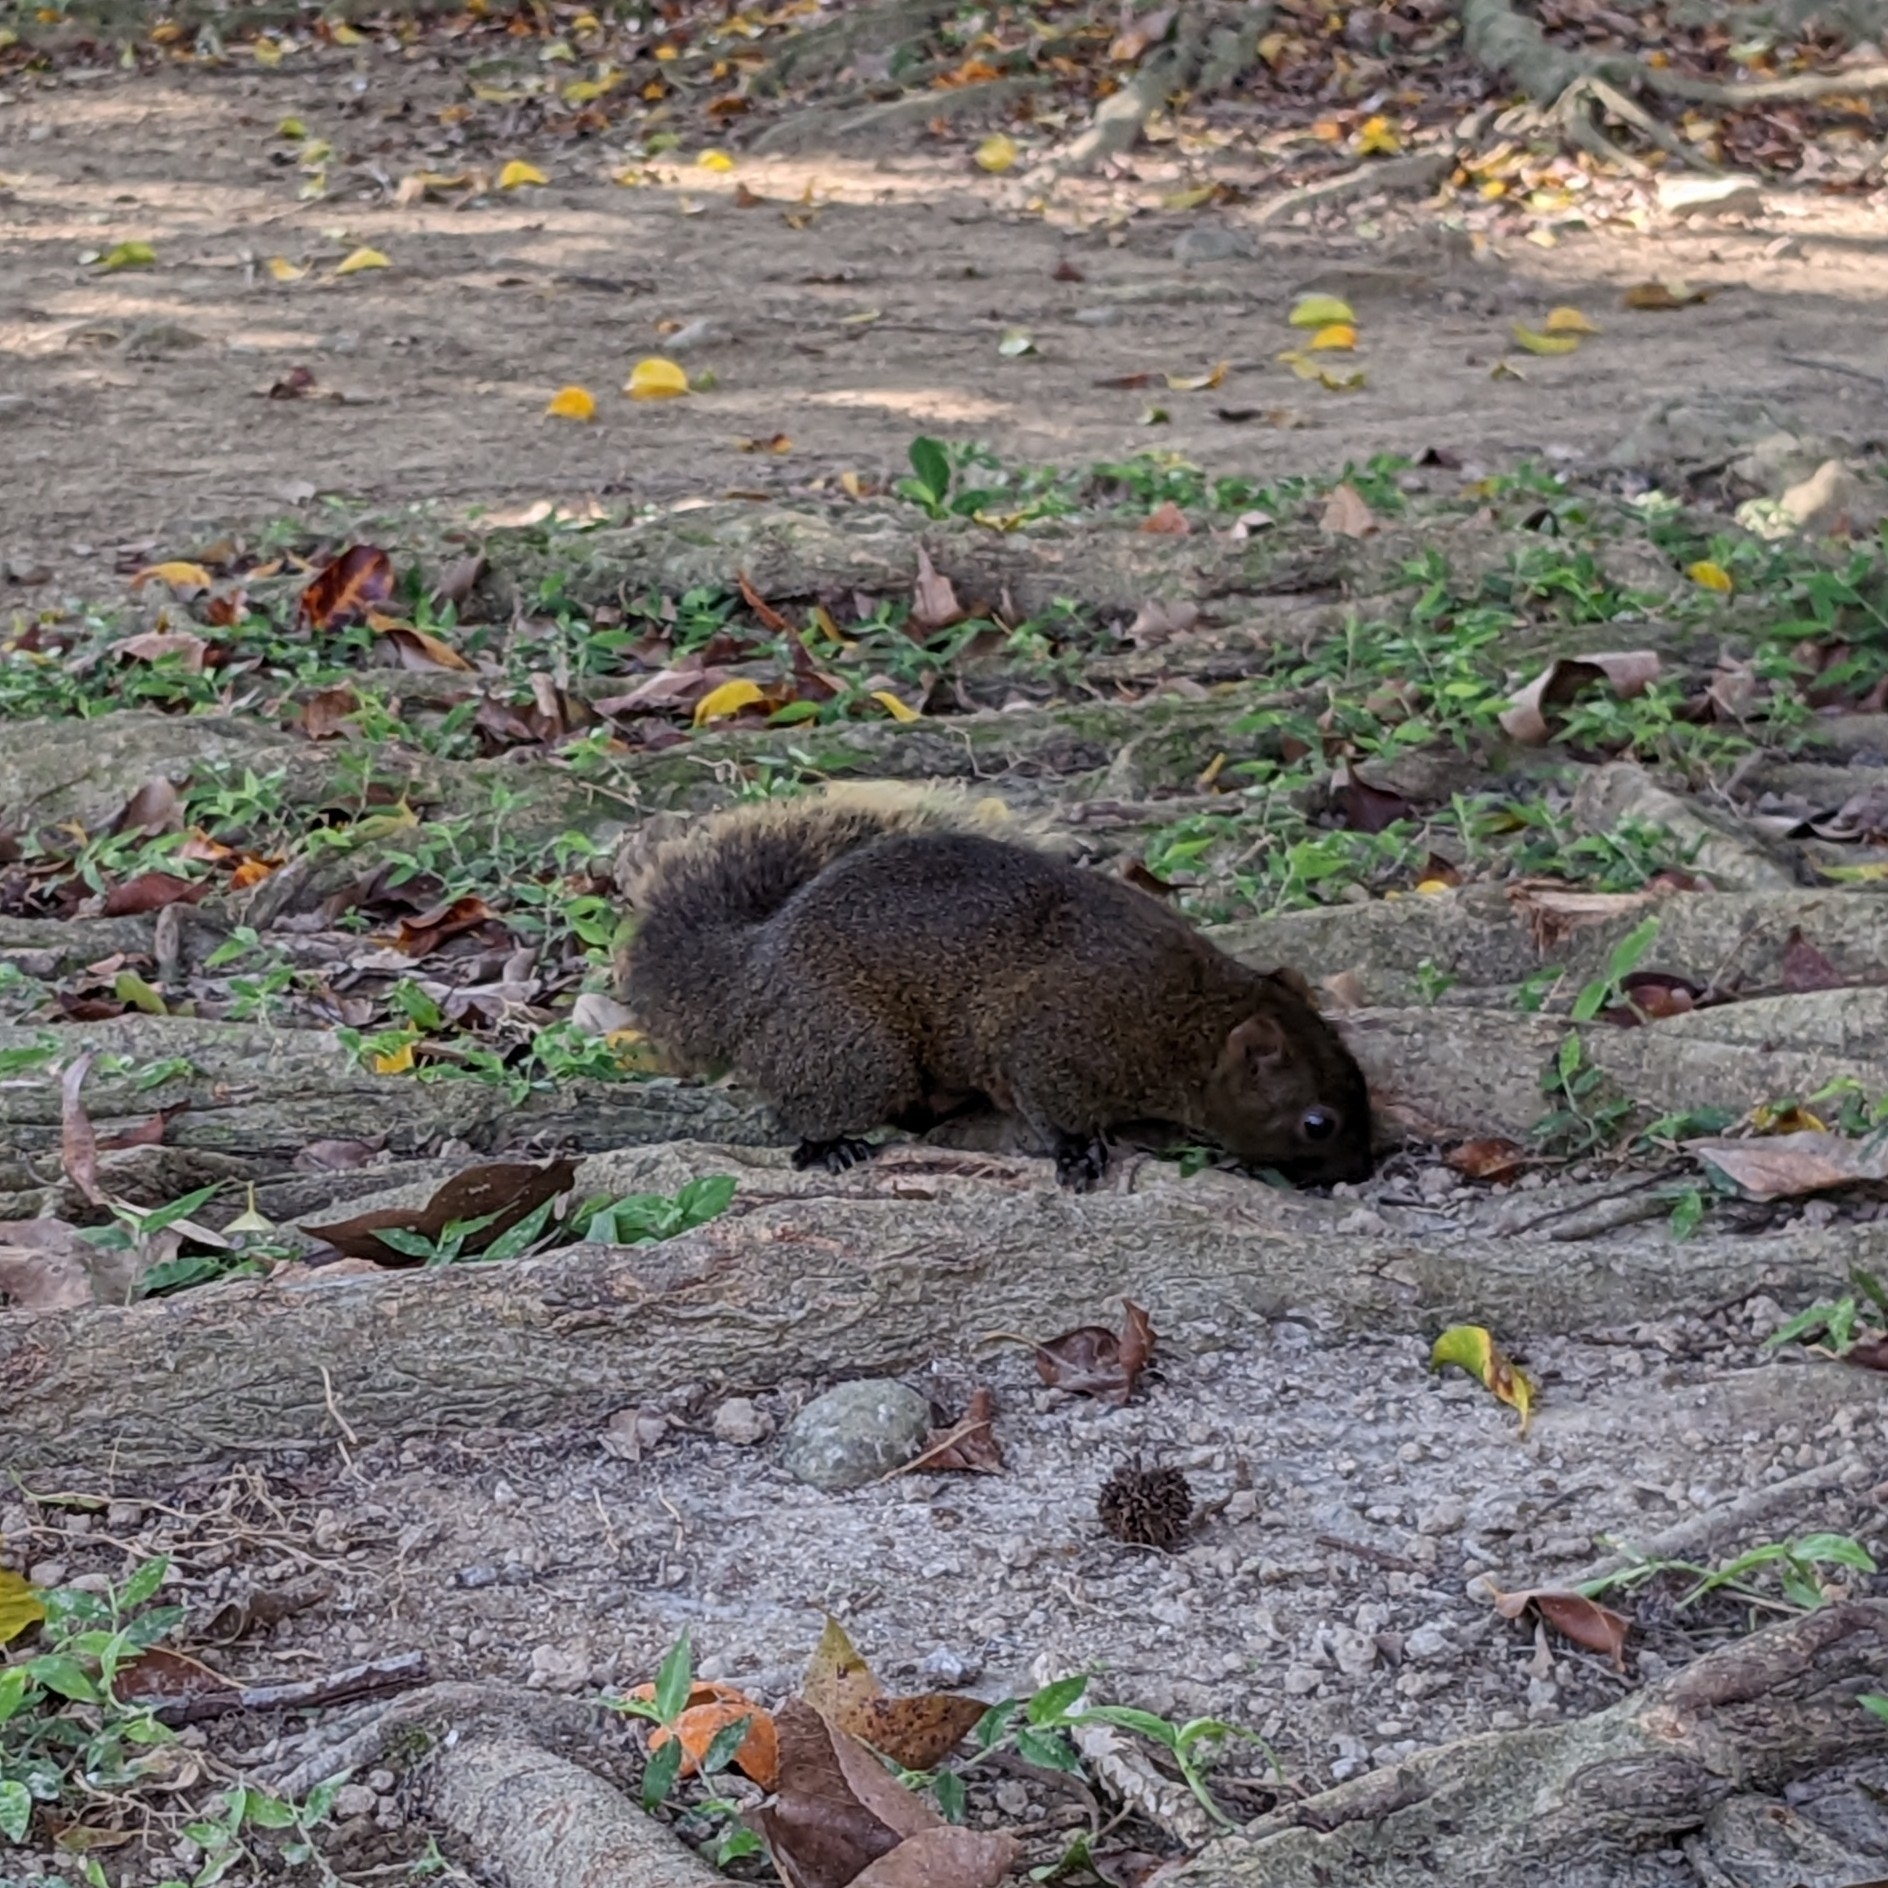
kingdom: Animalia
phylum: Chordata
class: Mammalia
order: Rodentia
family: Sciuridae
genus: Callosciurus
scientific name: Callosciurus erythraeus
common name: Pallas's squirrel
